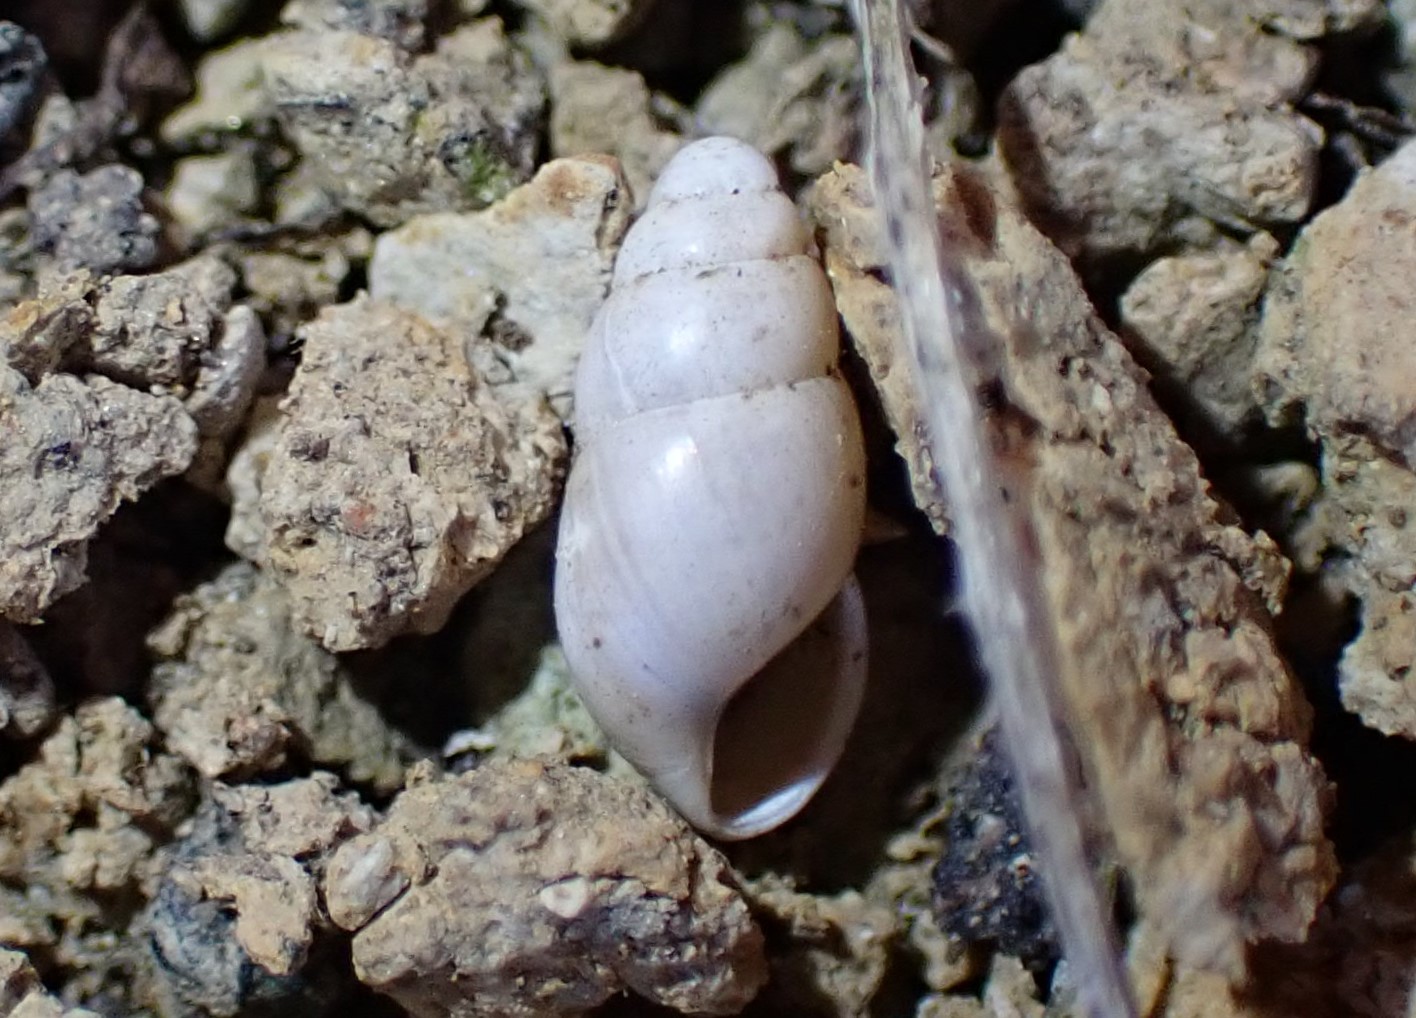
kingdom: Animalia
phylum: Mollusca
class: Gastropoda
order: Stylommatophora
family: Cochlicopidae
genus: Cochlicopa
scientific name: Cochlicopa lubrica
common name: Glossy pillar snail
